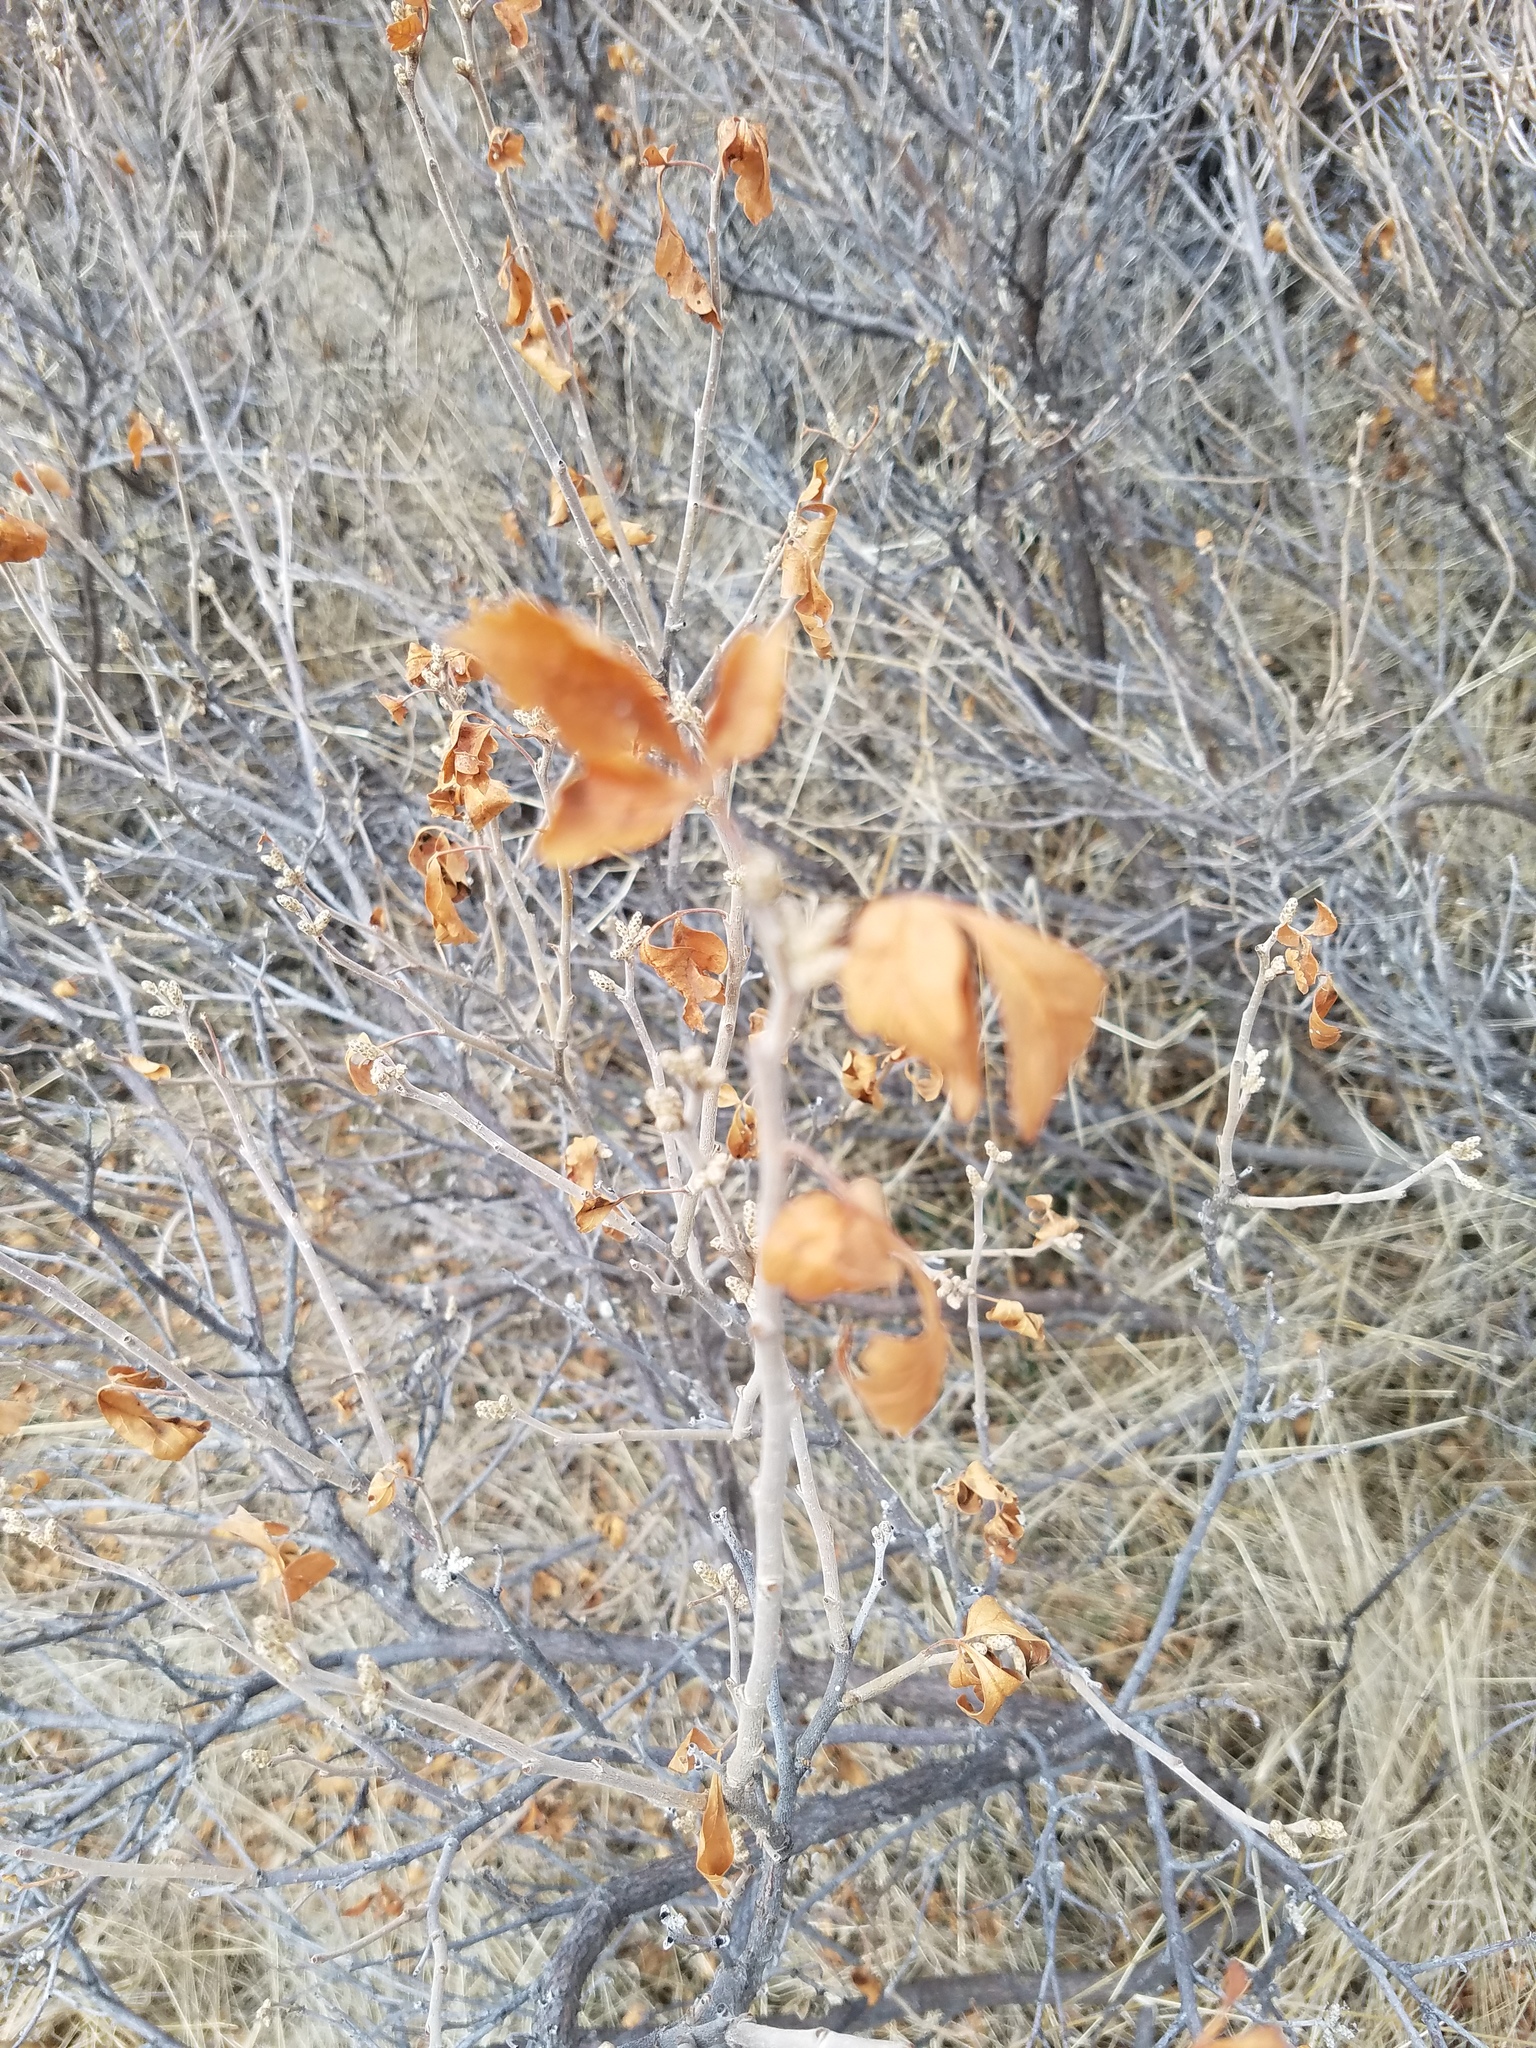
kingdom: Plantae
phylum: Tracheophyta
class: Magnoliopsida
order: Sapindales
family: Anacardiaceae
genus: Rhus
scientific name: Rhus aromatica
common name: Aromatic sumac
